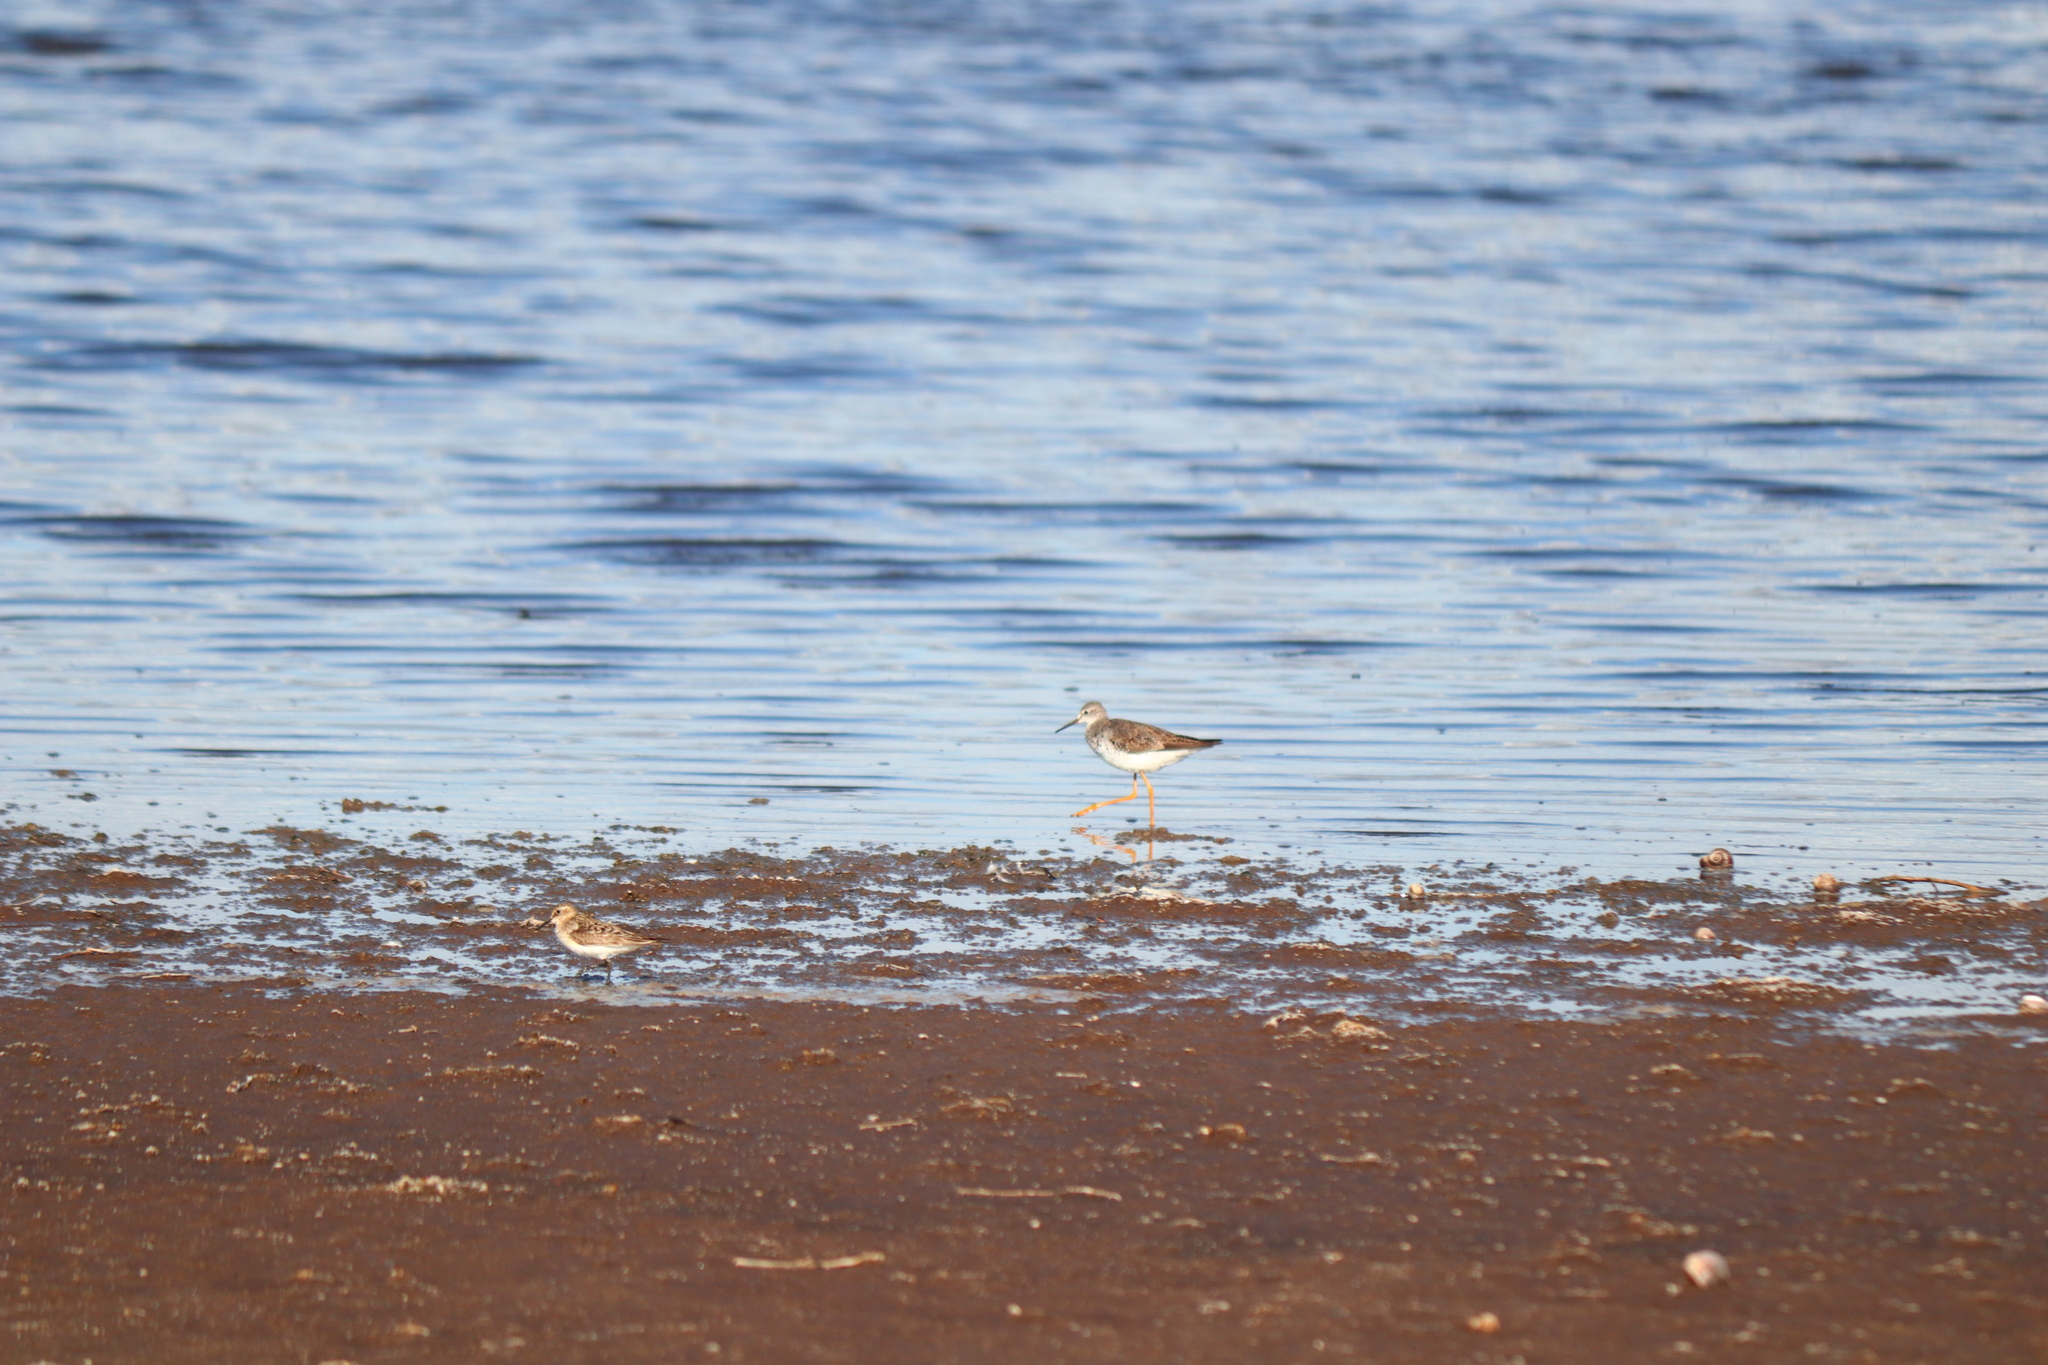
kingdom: Animalia
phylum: Chordata
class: Aves
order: Charadriiformes
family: Scolopacidae
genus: Tringa
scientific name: Tringa flavipes
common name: Lesser yellowlegs
